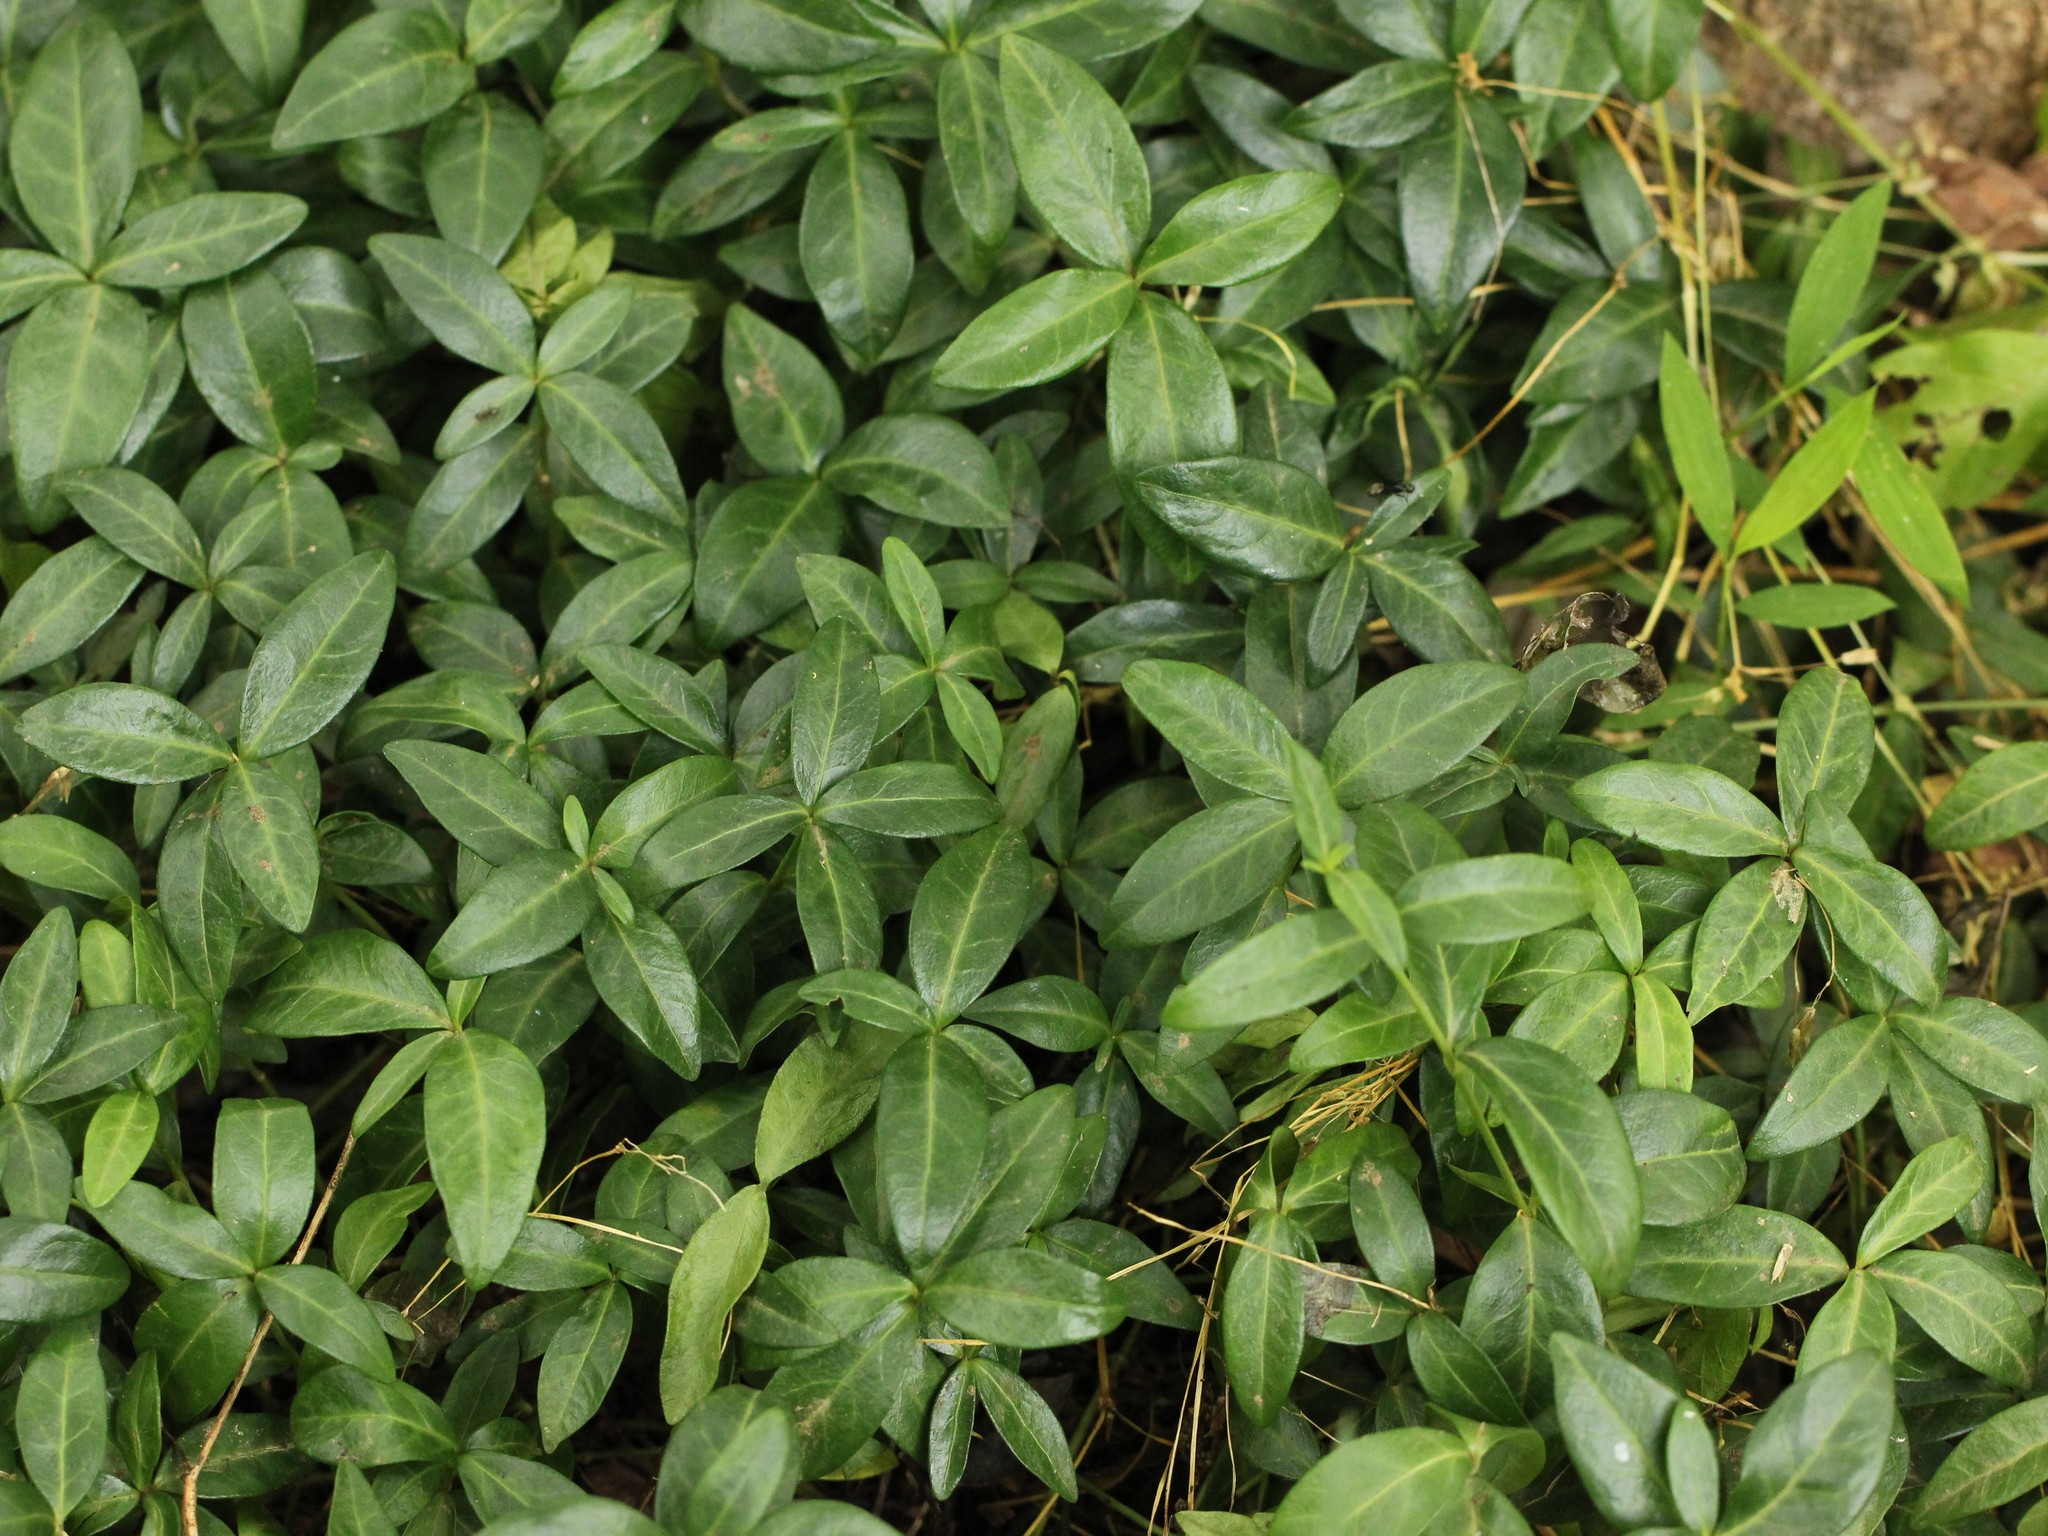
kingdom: Plantae
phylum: Tracheophyta
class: Magnoliopsida
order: Gentianales
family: Apocynaceae
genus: Vinca
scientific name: Vinca minor
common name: Lesser periwinkle
